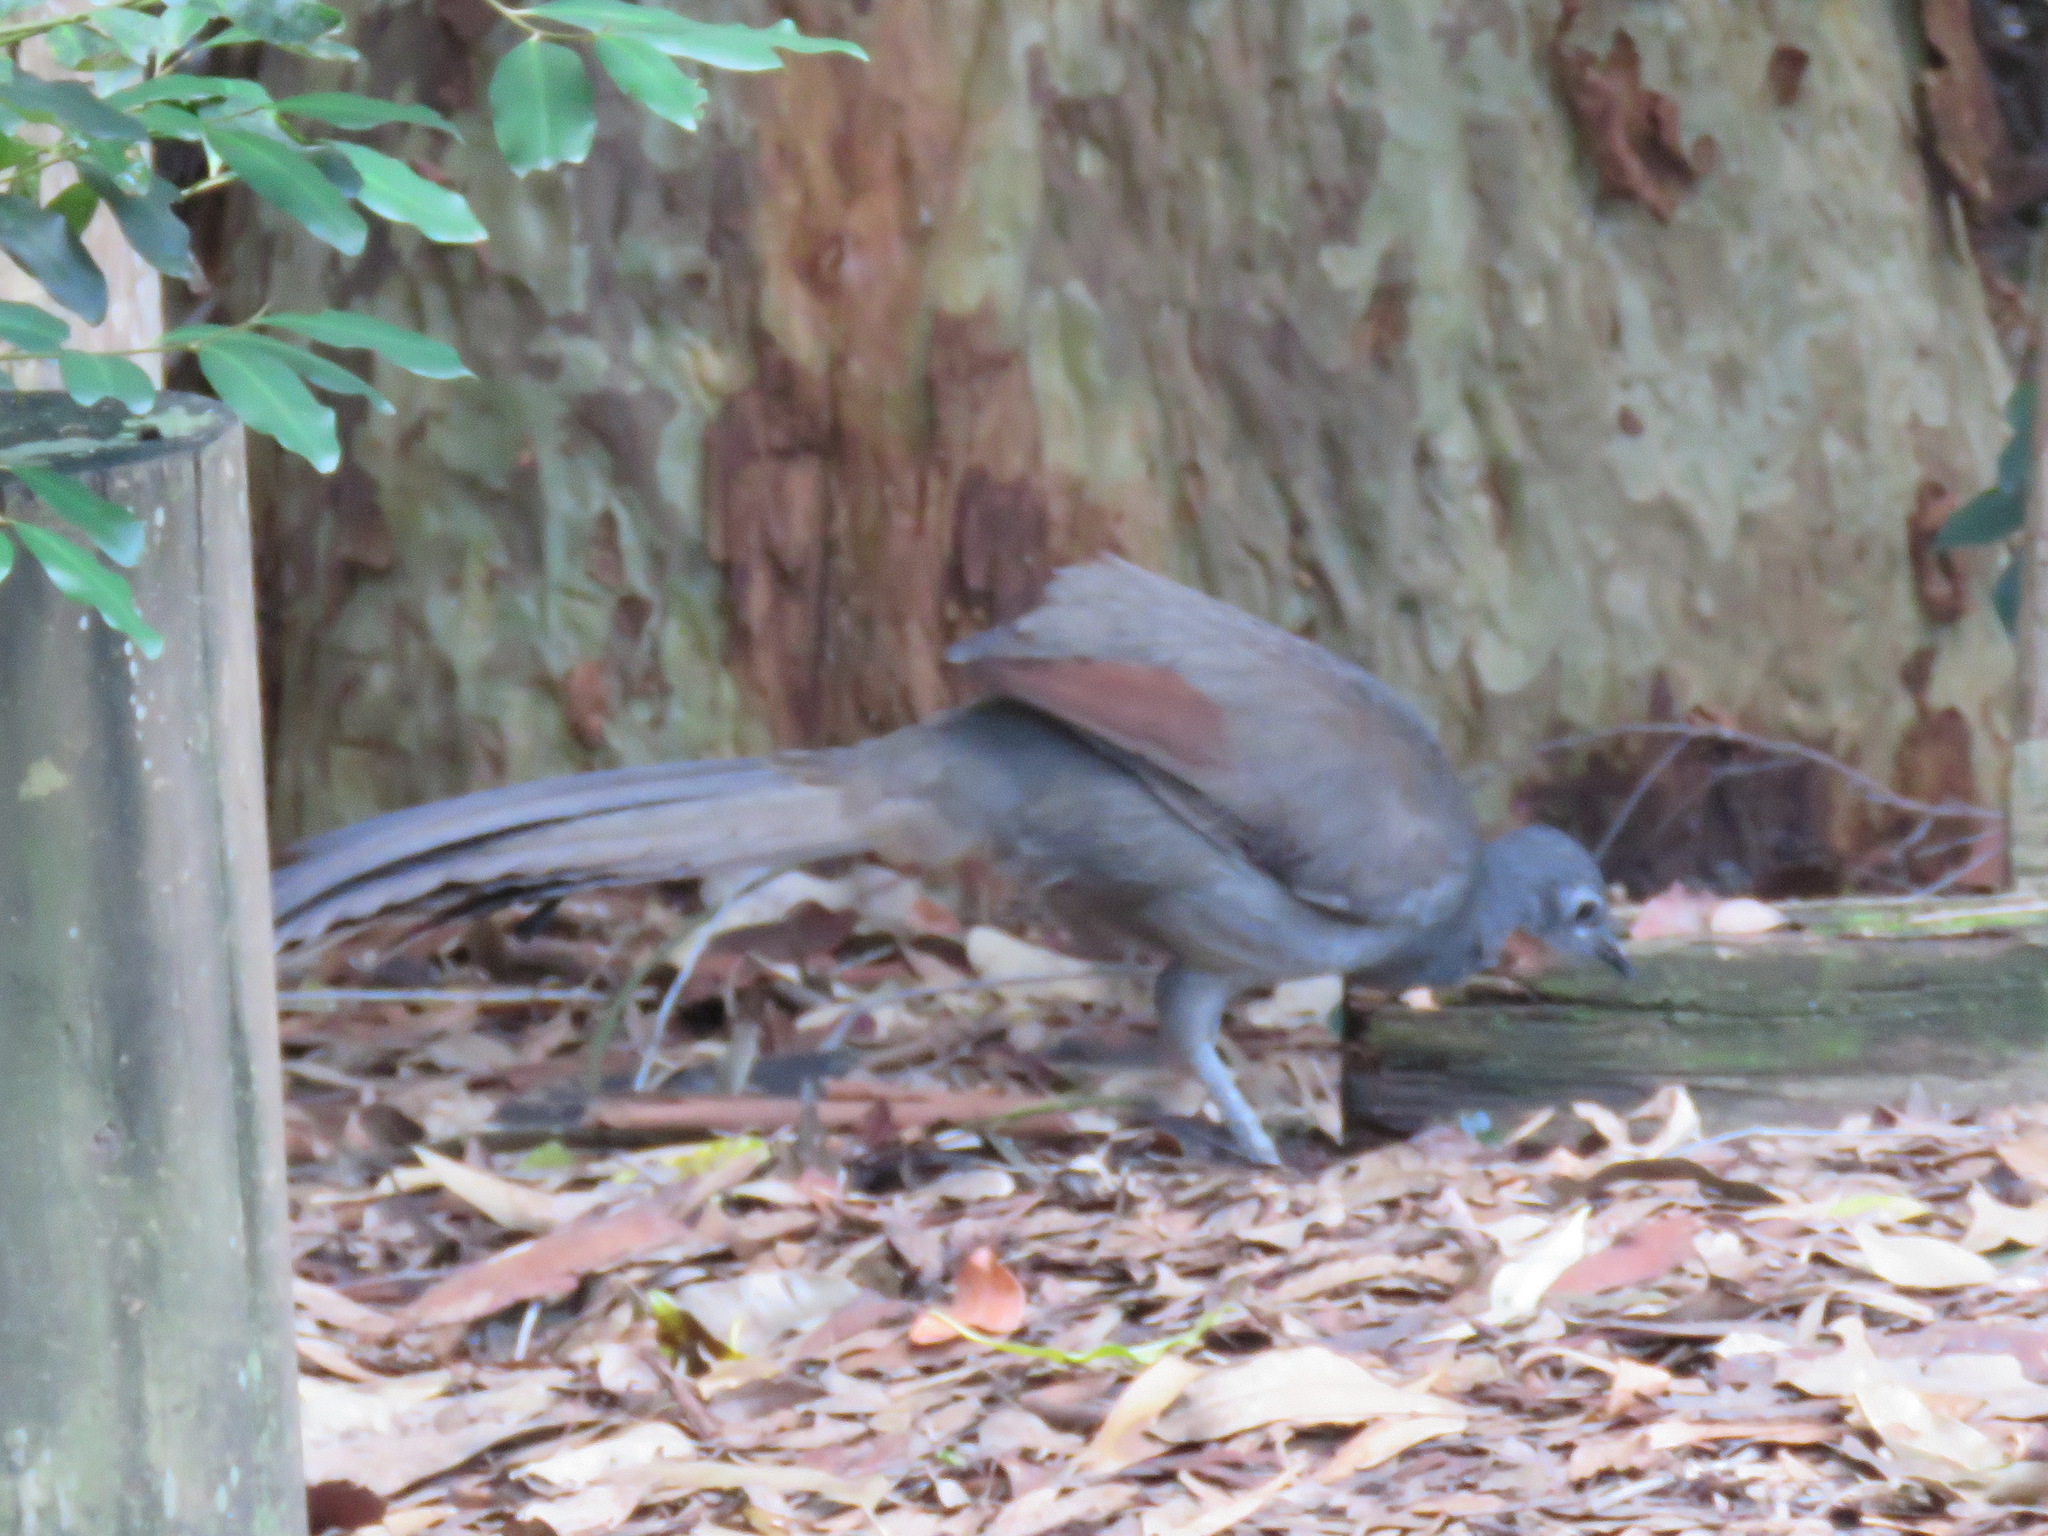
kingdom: Animalia
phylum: Chordata
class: Aves
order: Passeriformes
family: Menuridae
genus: Menura
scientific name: Menura novaehollandiae
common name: Superb lyrebird
